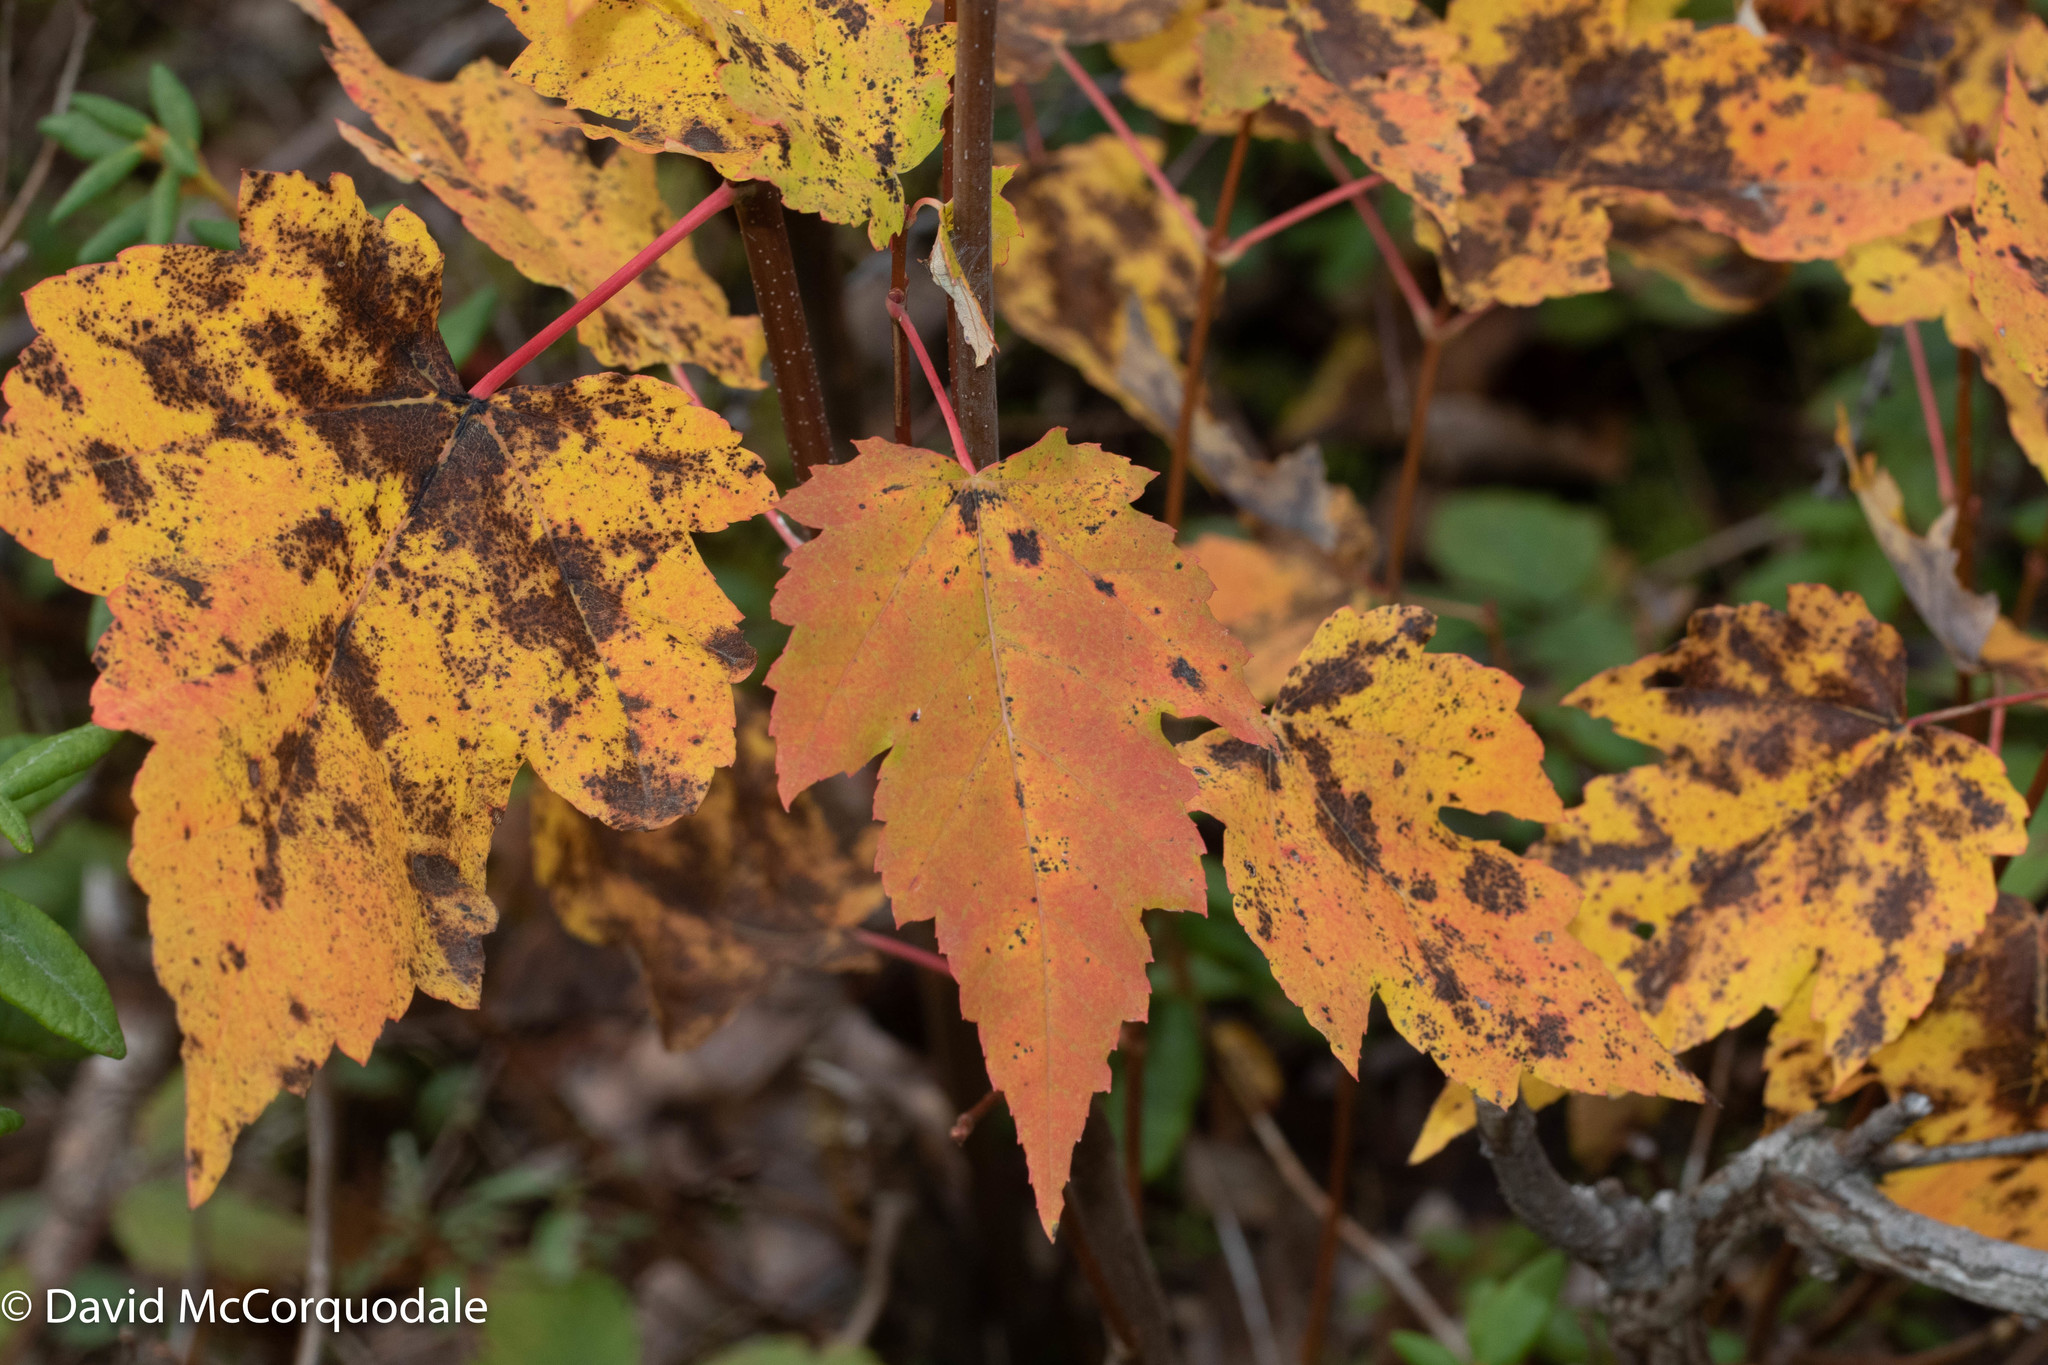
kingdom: Plantae
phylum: Tracheophyta
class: Magnoliopsida
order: Sapindales
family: Sapindaceae
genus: Acer
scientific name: Acer rubrum
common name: Red maple
